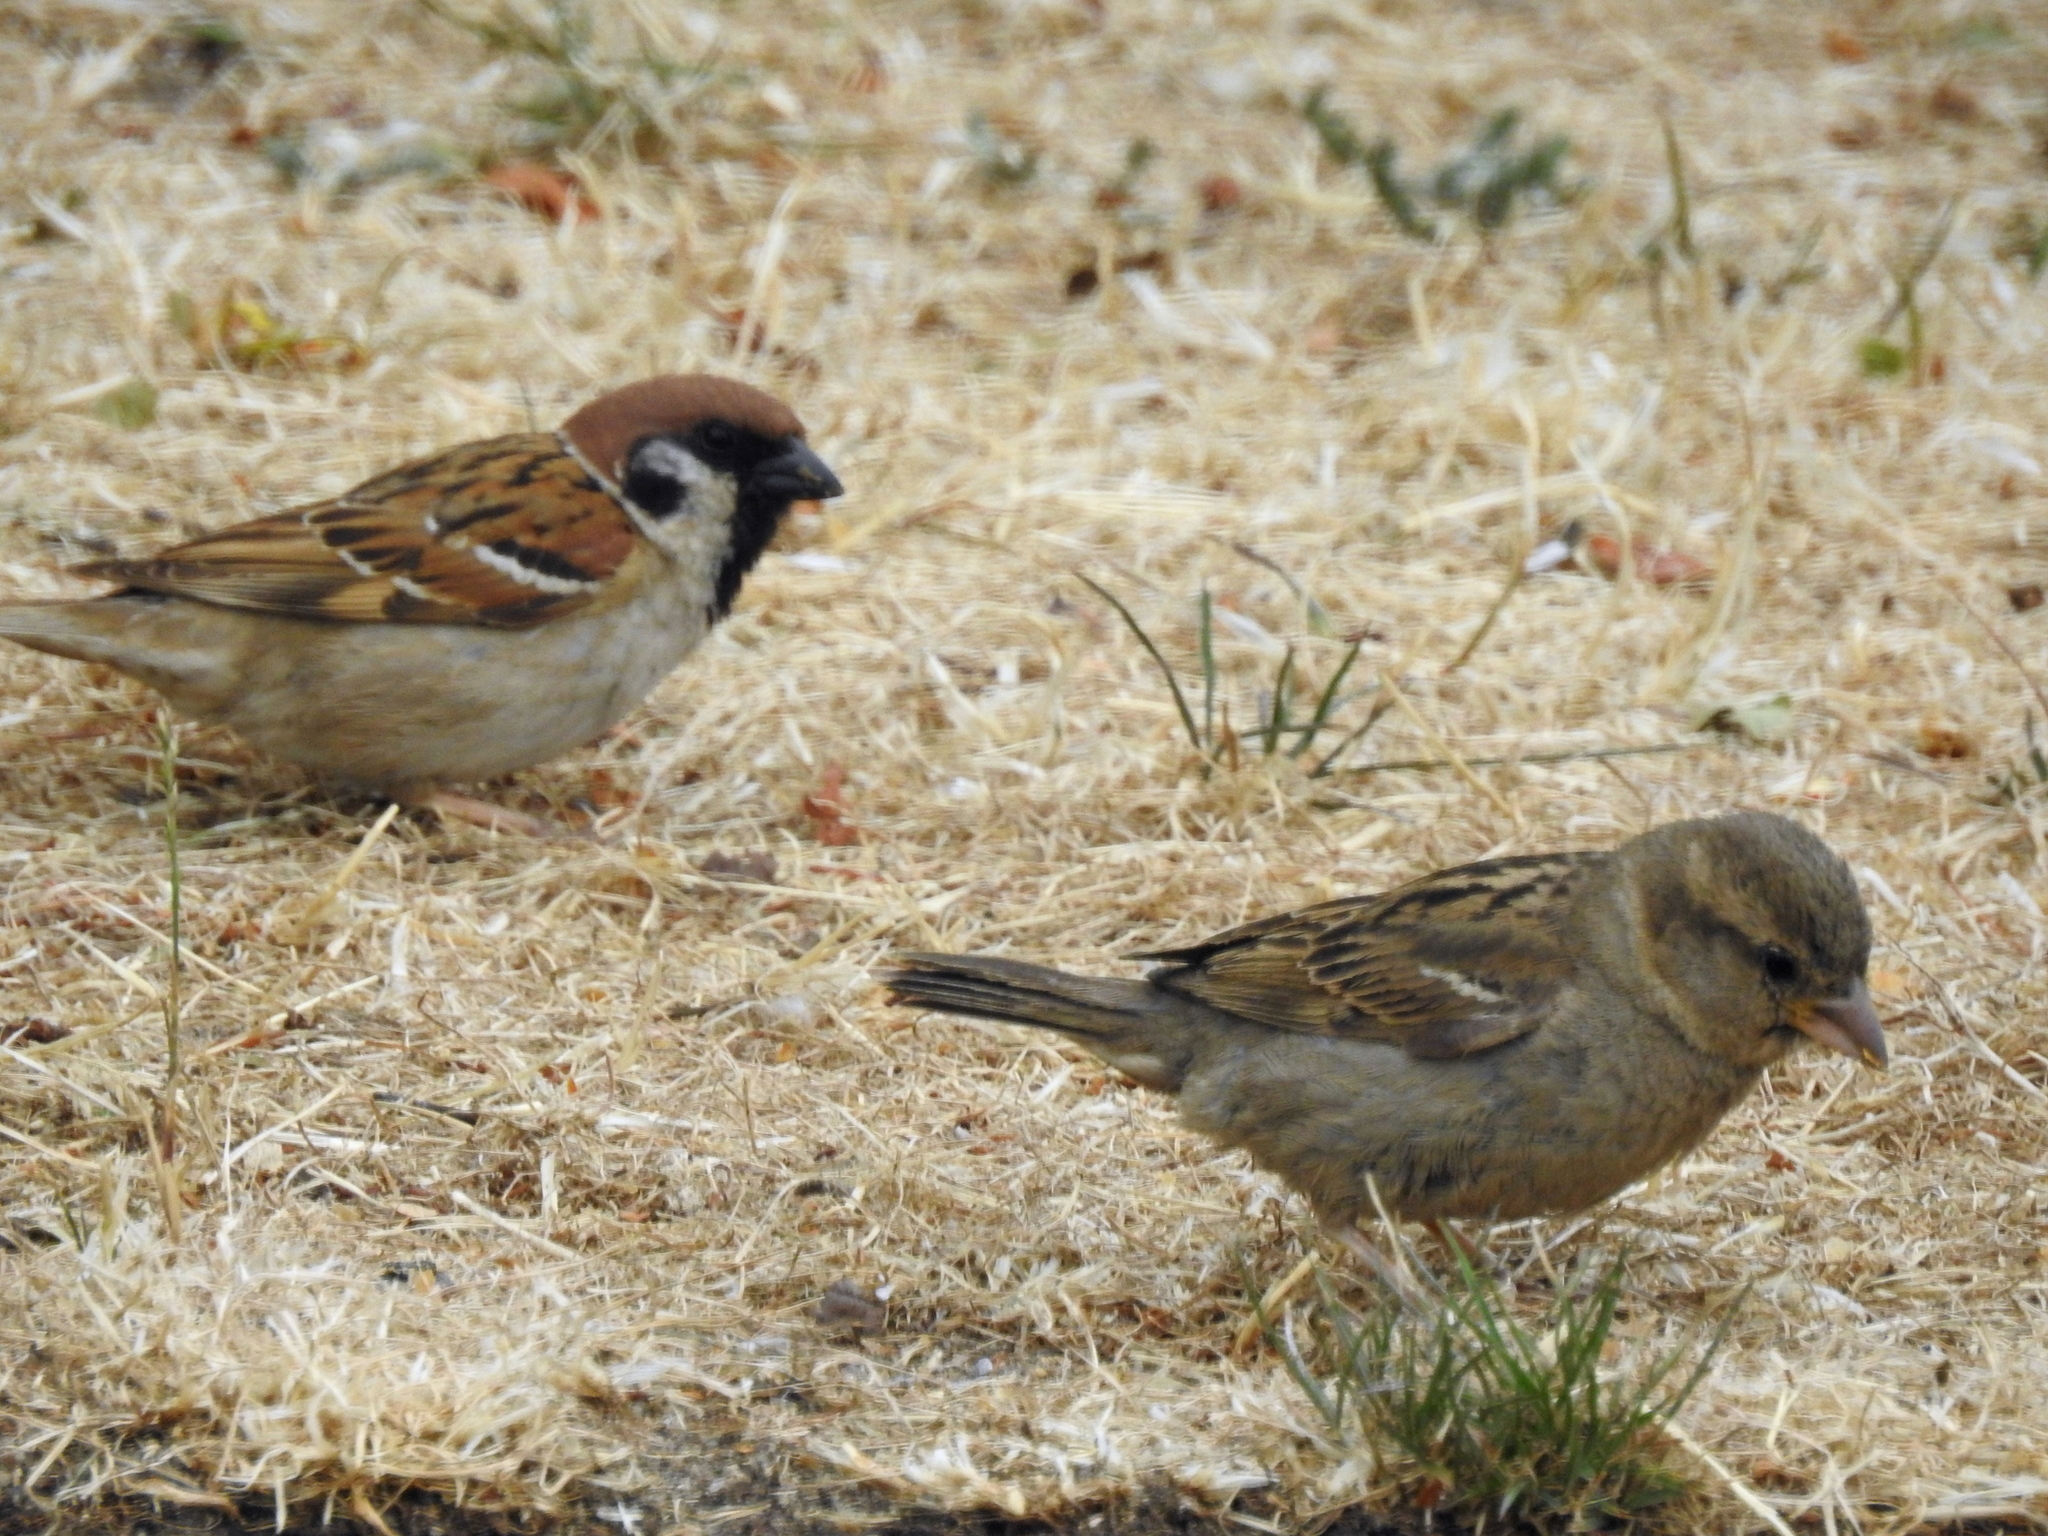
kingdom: Animalia
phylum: Chordata
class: Aves
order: Passeriformes
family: Passeridae
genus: Passer
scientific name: Passer montanus
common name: Eurasian tree sparrow
